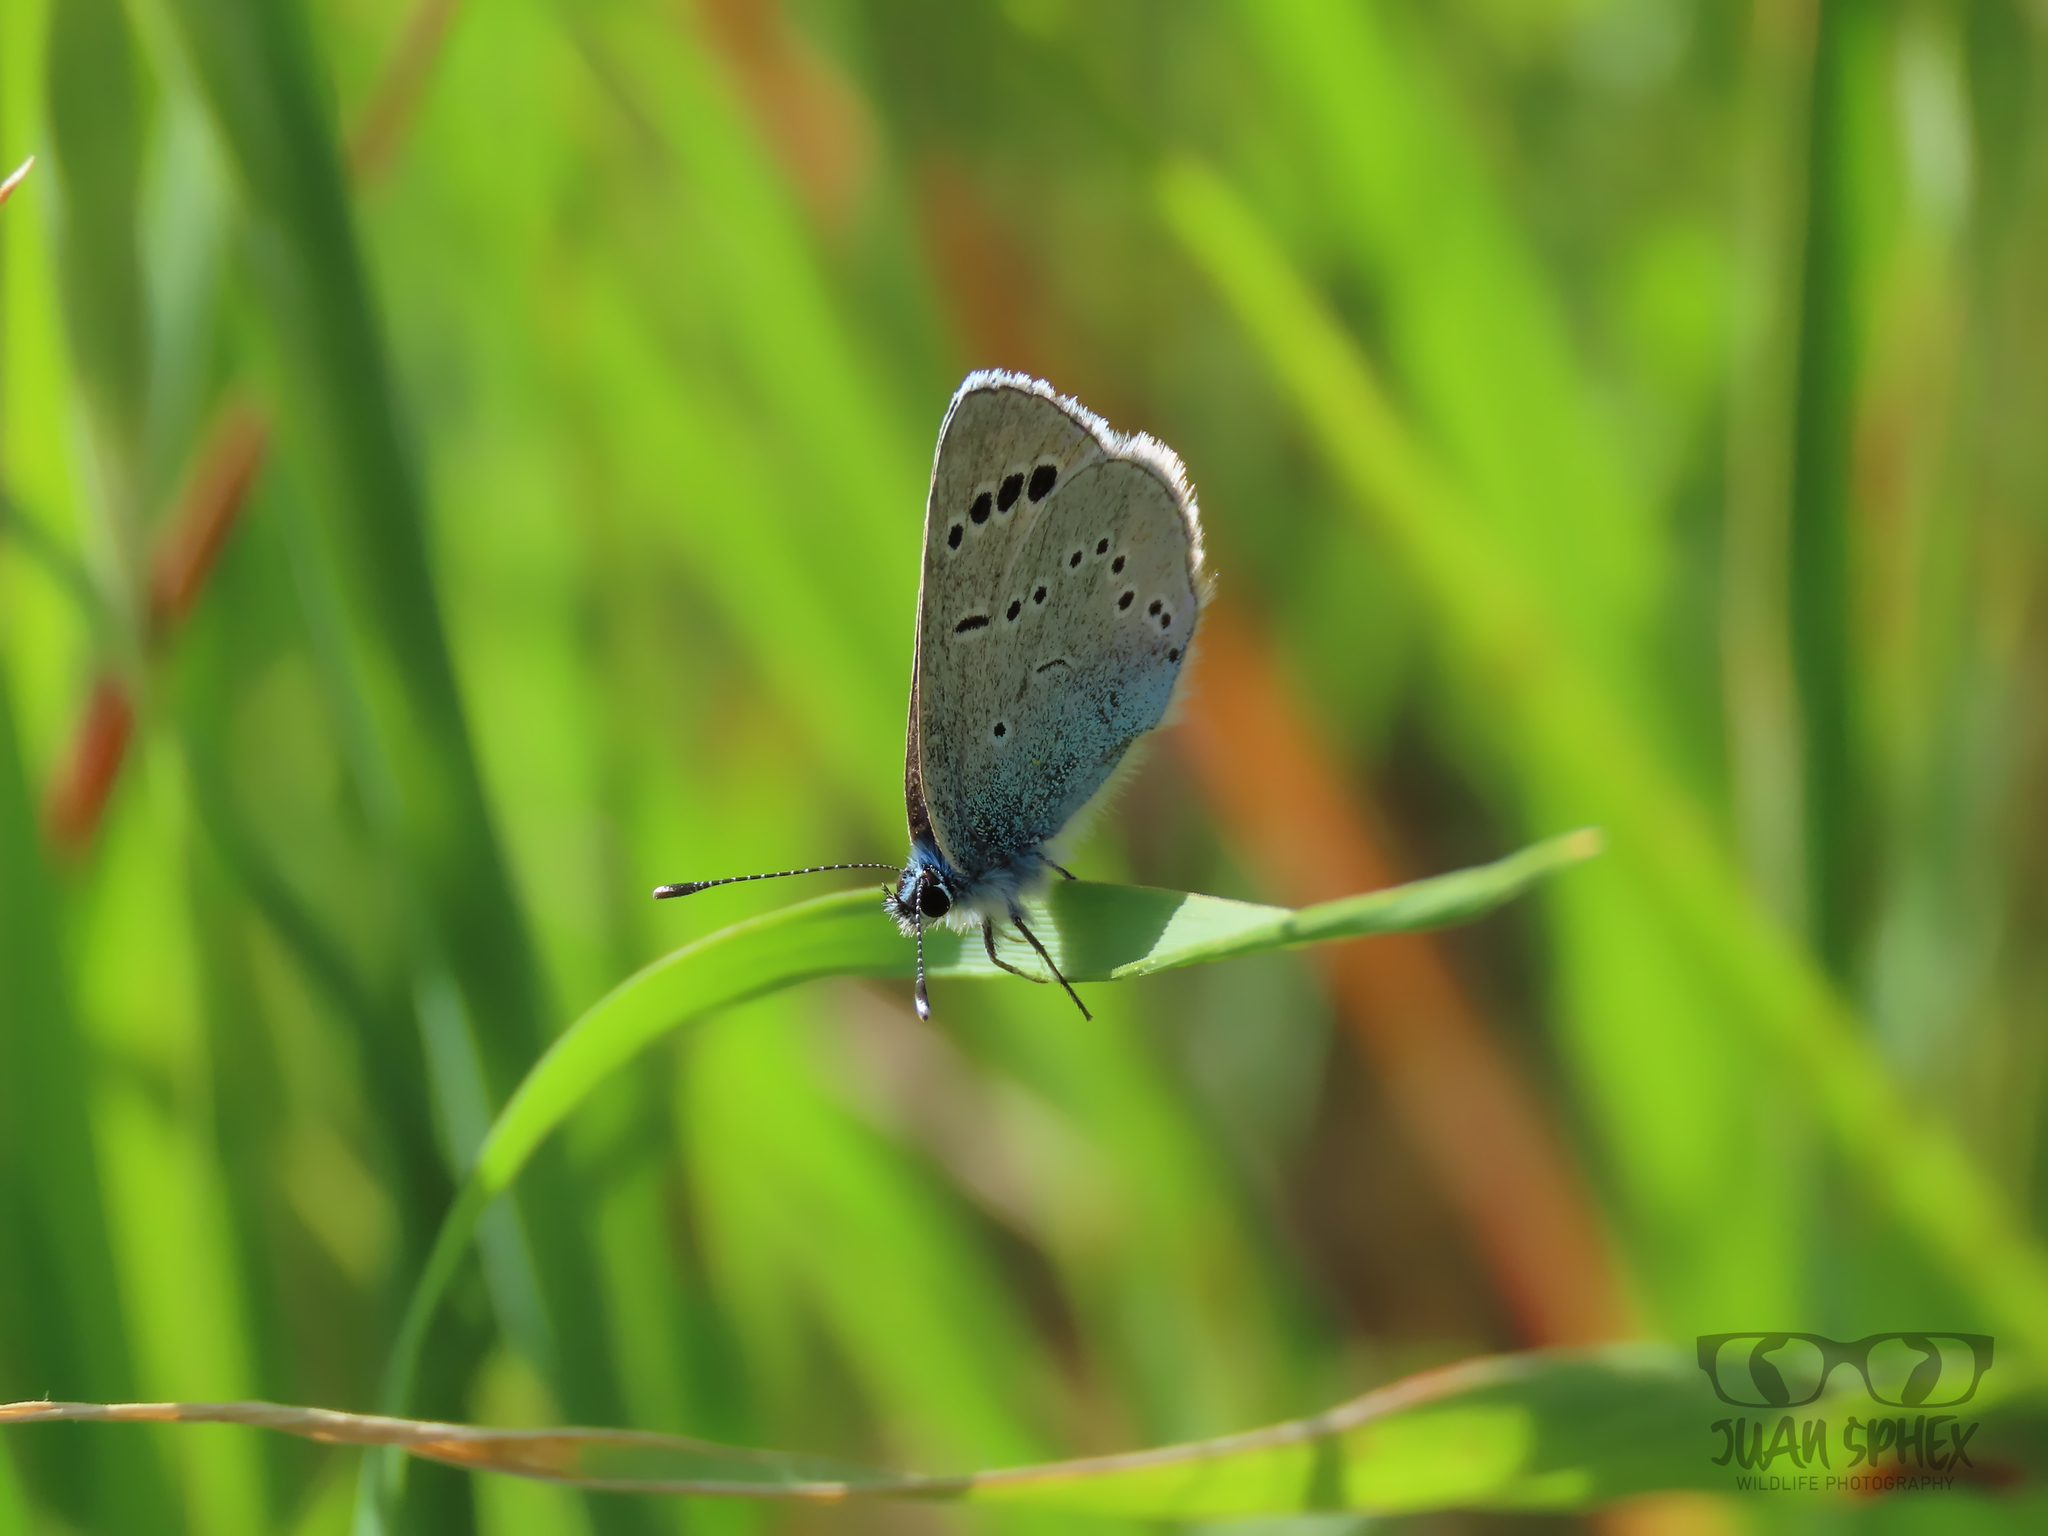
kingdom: Animalia
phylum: Arthropoda
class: Insecta
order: Lepidoptera
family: Lycaenidae
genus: Glaucopsyche
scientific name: Glaucopsyche alexis
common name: Green-underside blue
